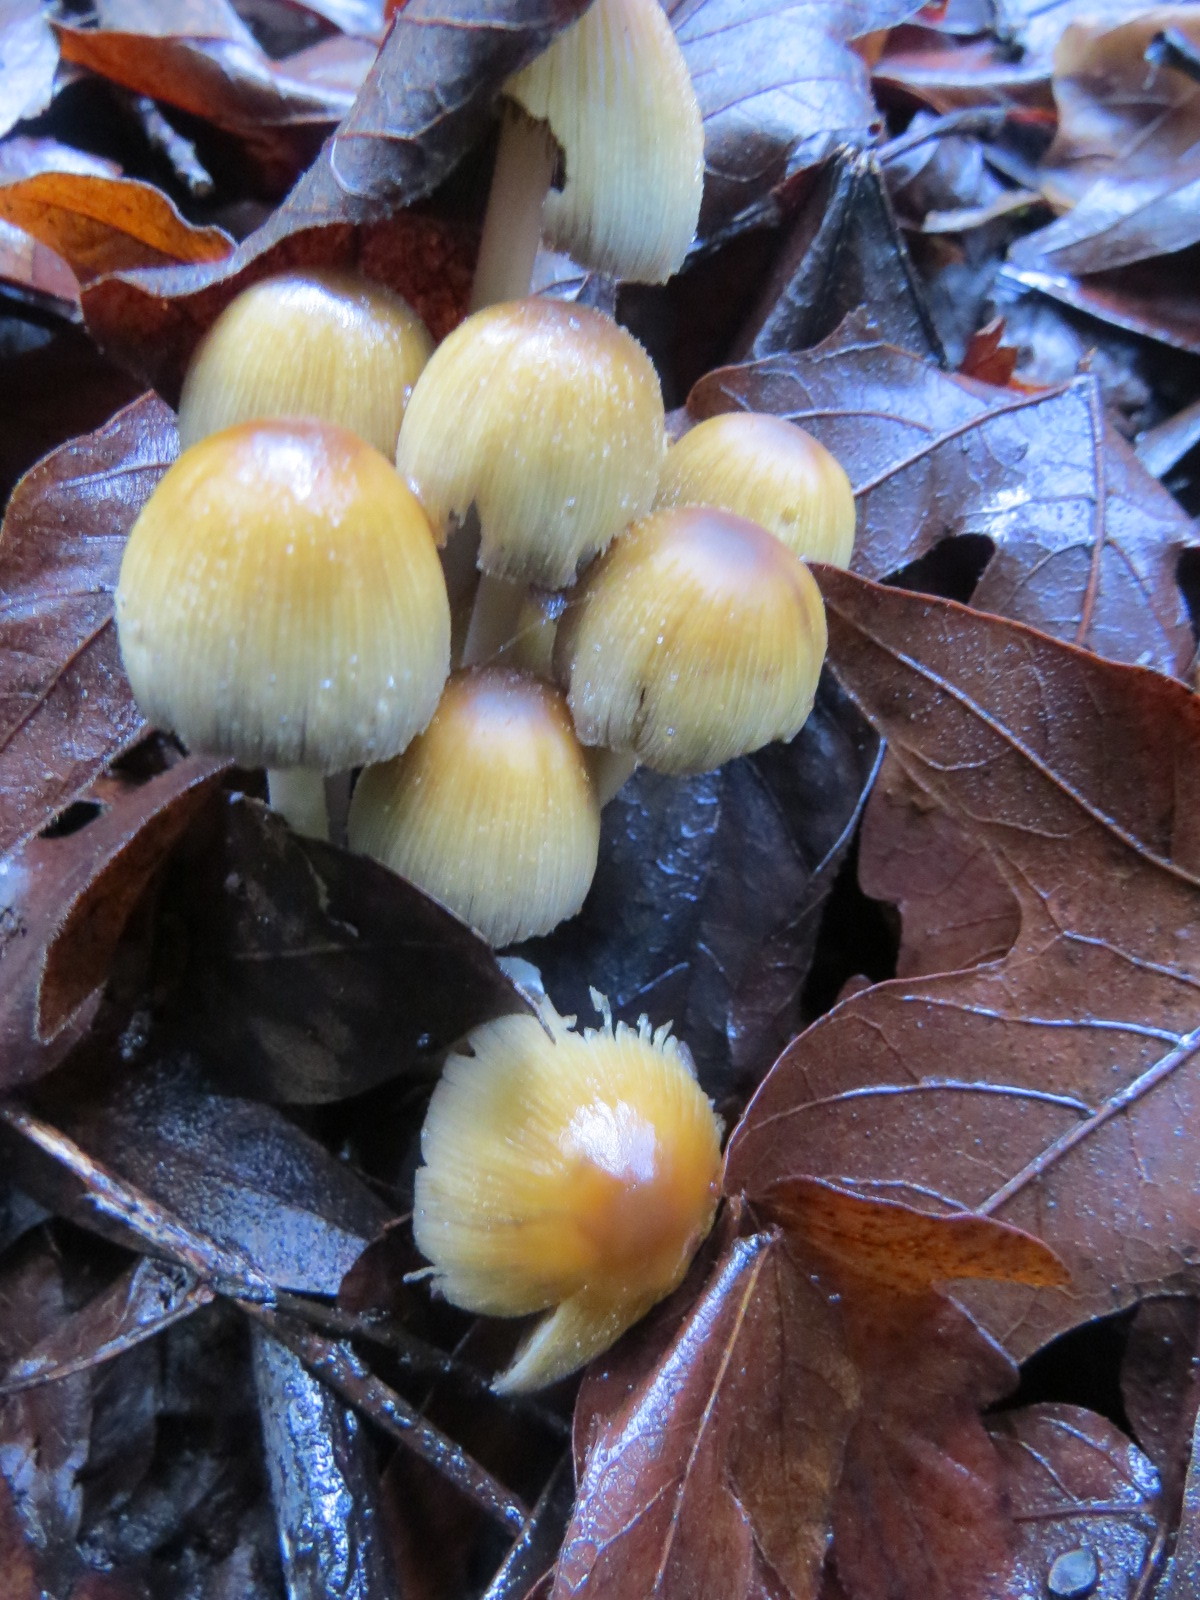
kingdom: Fungi
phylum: Basidiomycota
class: Agaricomycetes
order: Agaricales
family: Psathyrellaceae
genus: Coprinellus
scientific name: Coprinellus micaceus
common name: Glistening ink-cap
